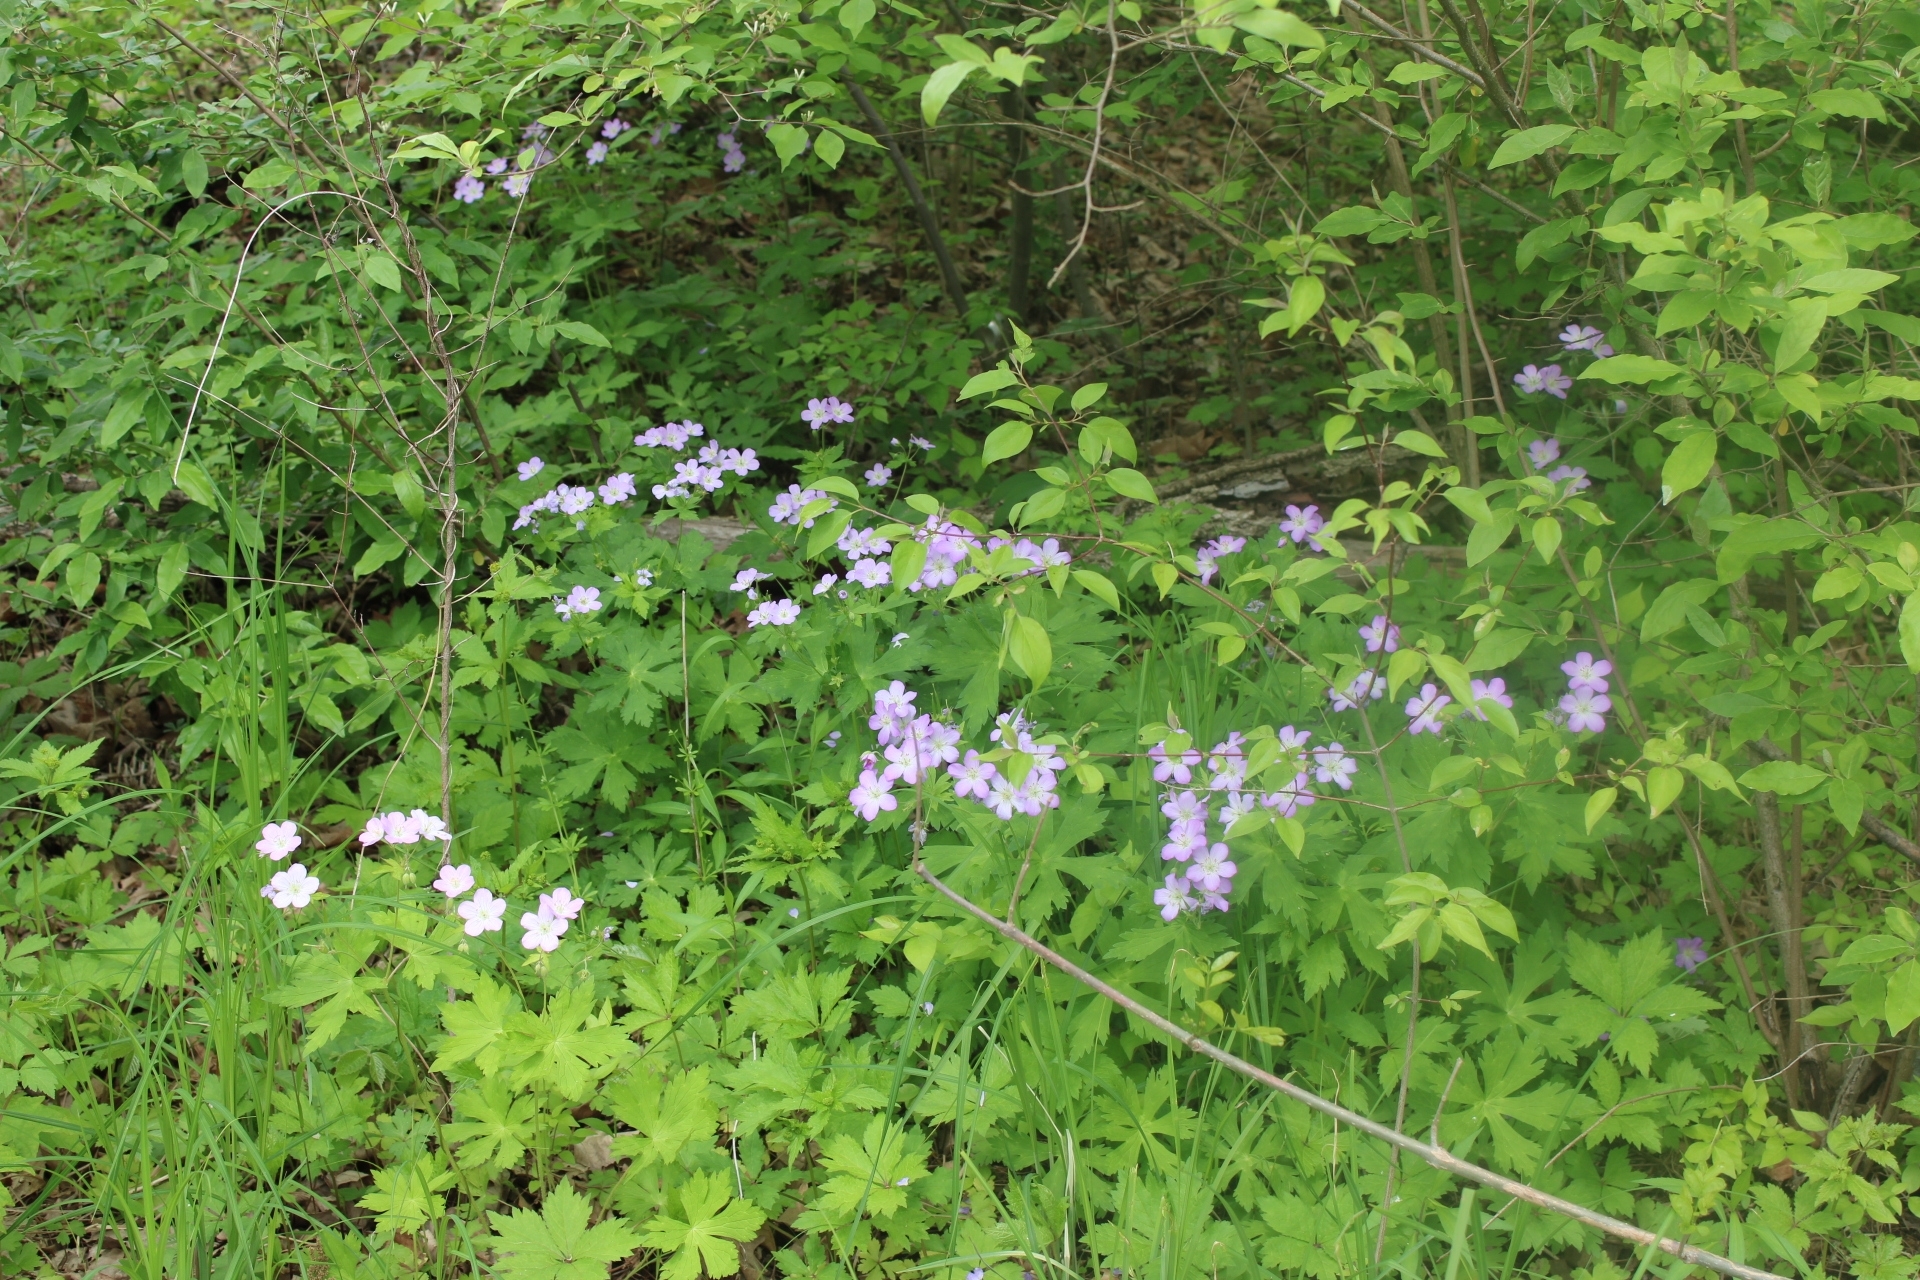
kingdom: Plantae
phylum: Tracheophyta
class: Magnoliopsida
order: Geraniales
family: Geraniaceae
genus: Geranium
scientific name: Geranium maculatum
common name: Spotted geranium
